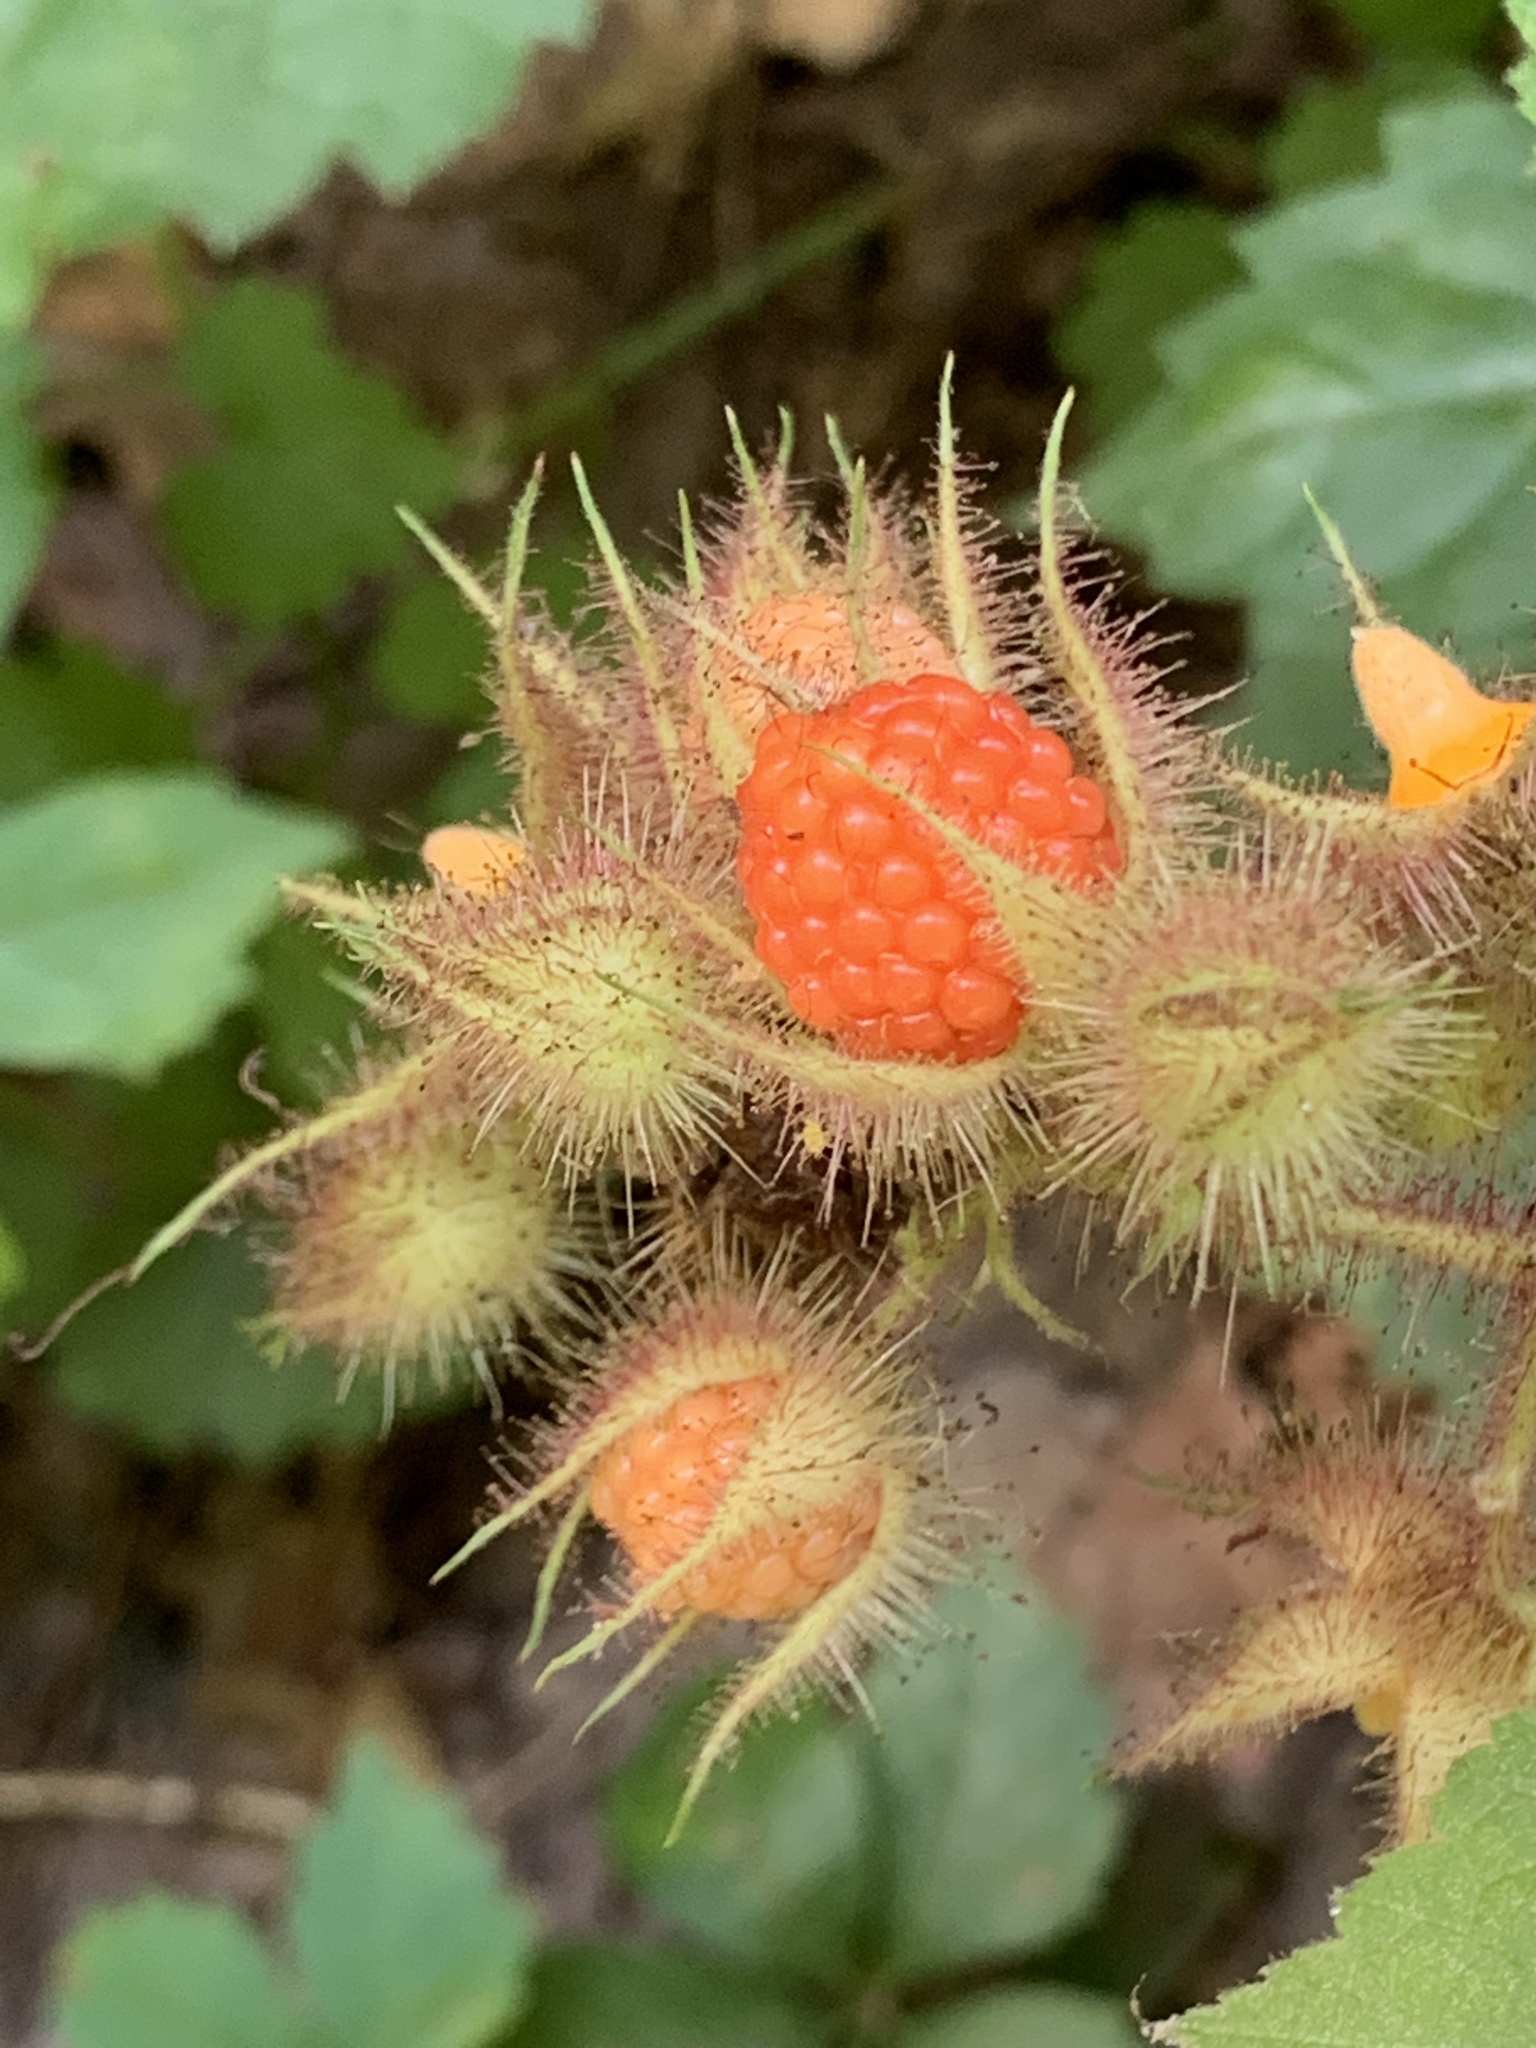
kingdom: Plantae
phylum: Tracheophyta
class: Magnoliopsida
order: Rosales
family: Rosaceae
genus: Rubus
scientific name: Rubus phoenicolasius
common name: Japanese wineberry
